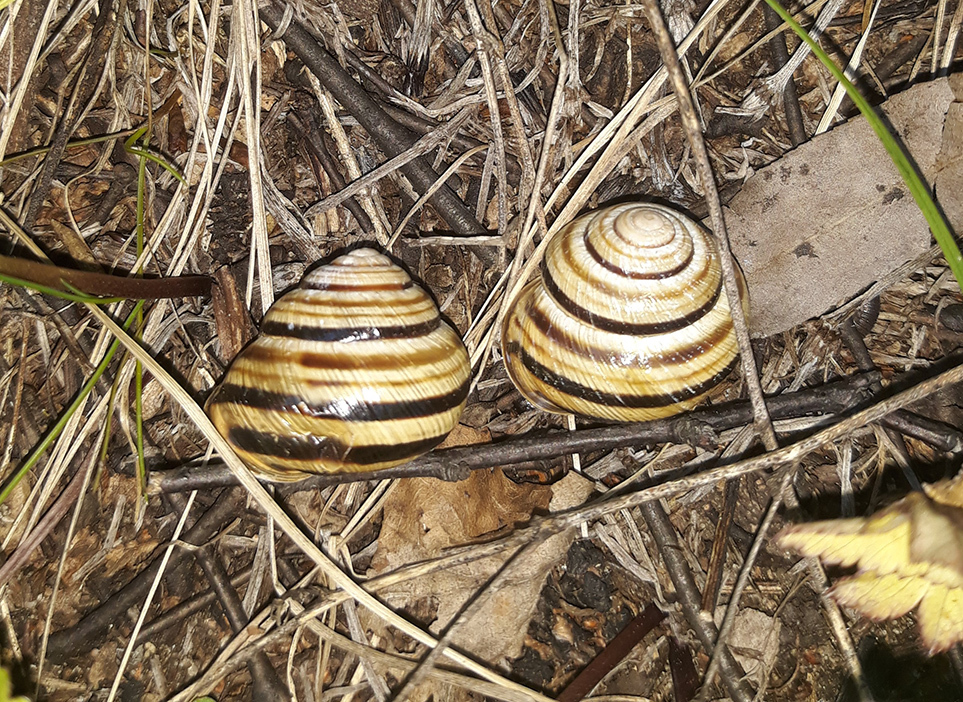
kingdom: Animalia
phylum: Mollusca
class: Gastropoda
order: Stylommatophora
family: Helicidae
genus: Caucasotachea
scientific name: Caucasotachea vindobonensis
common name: European helicid land snail
